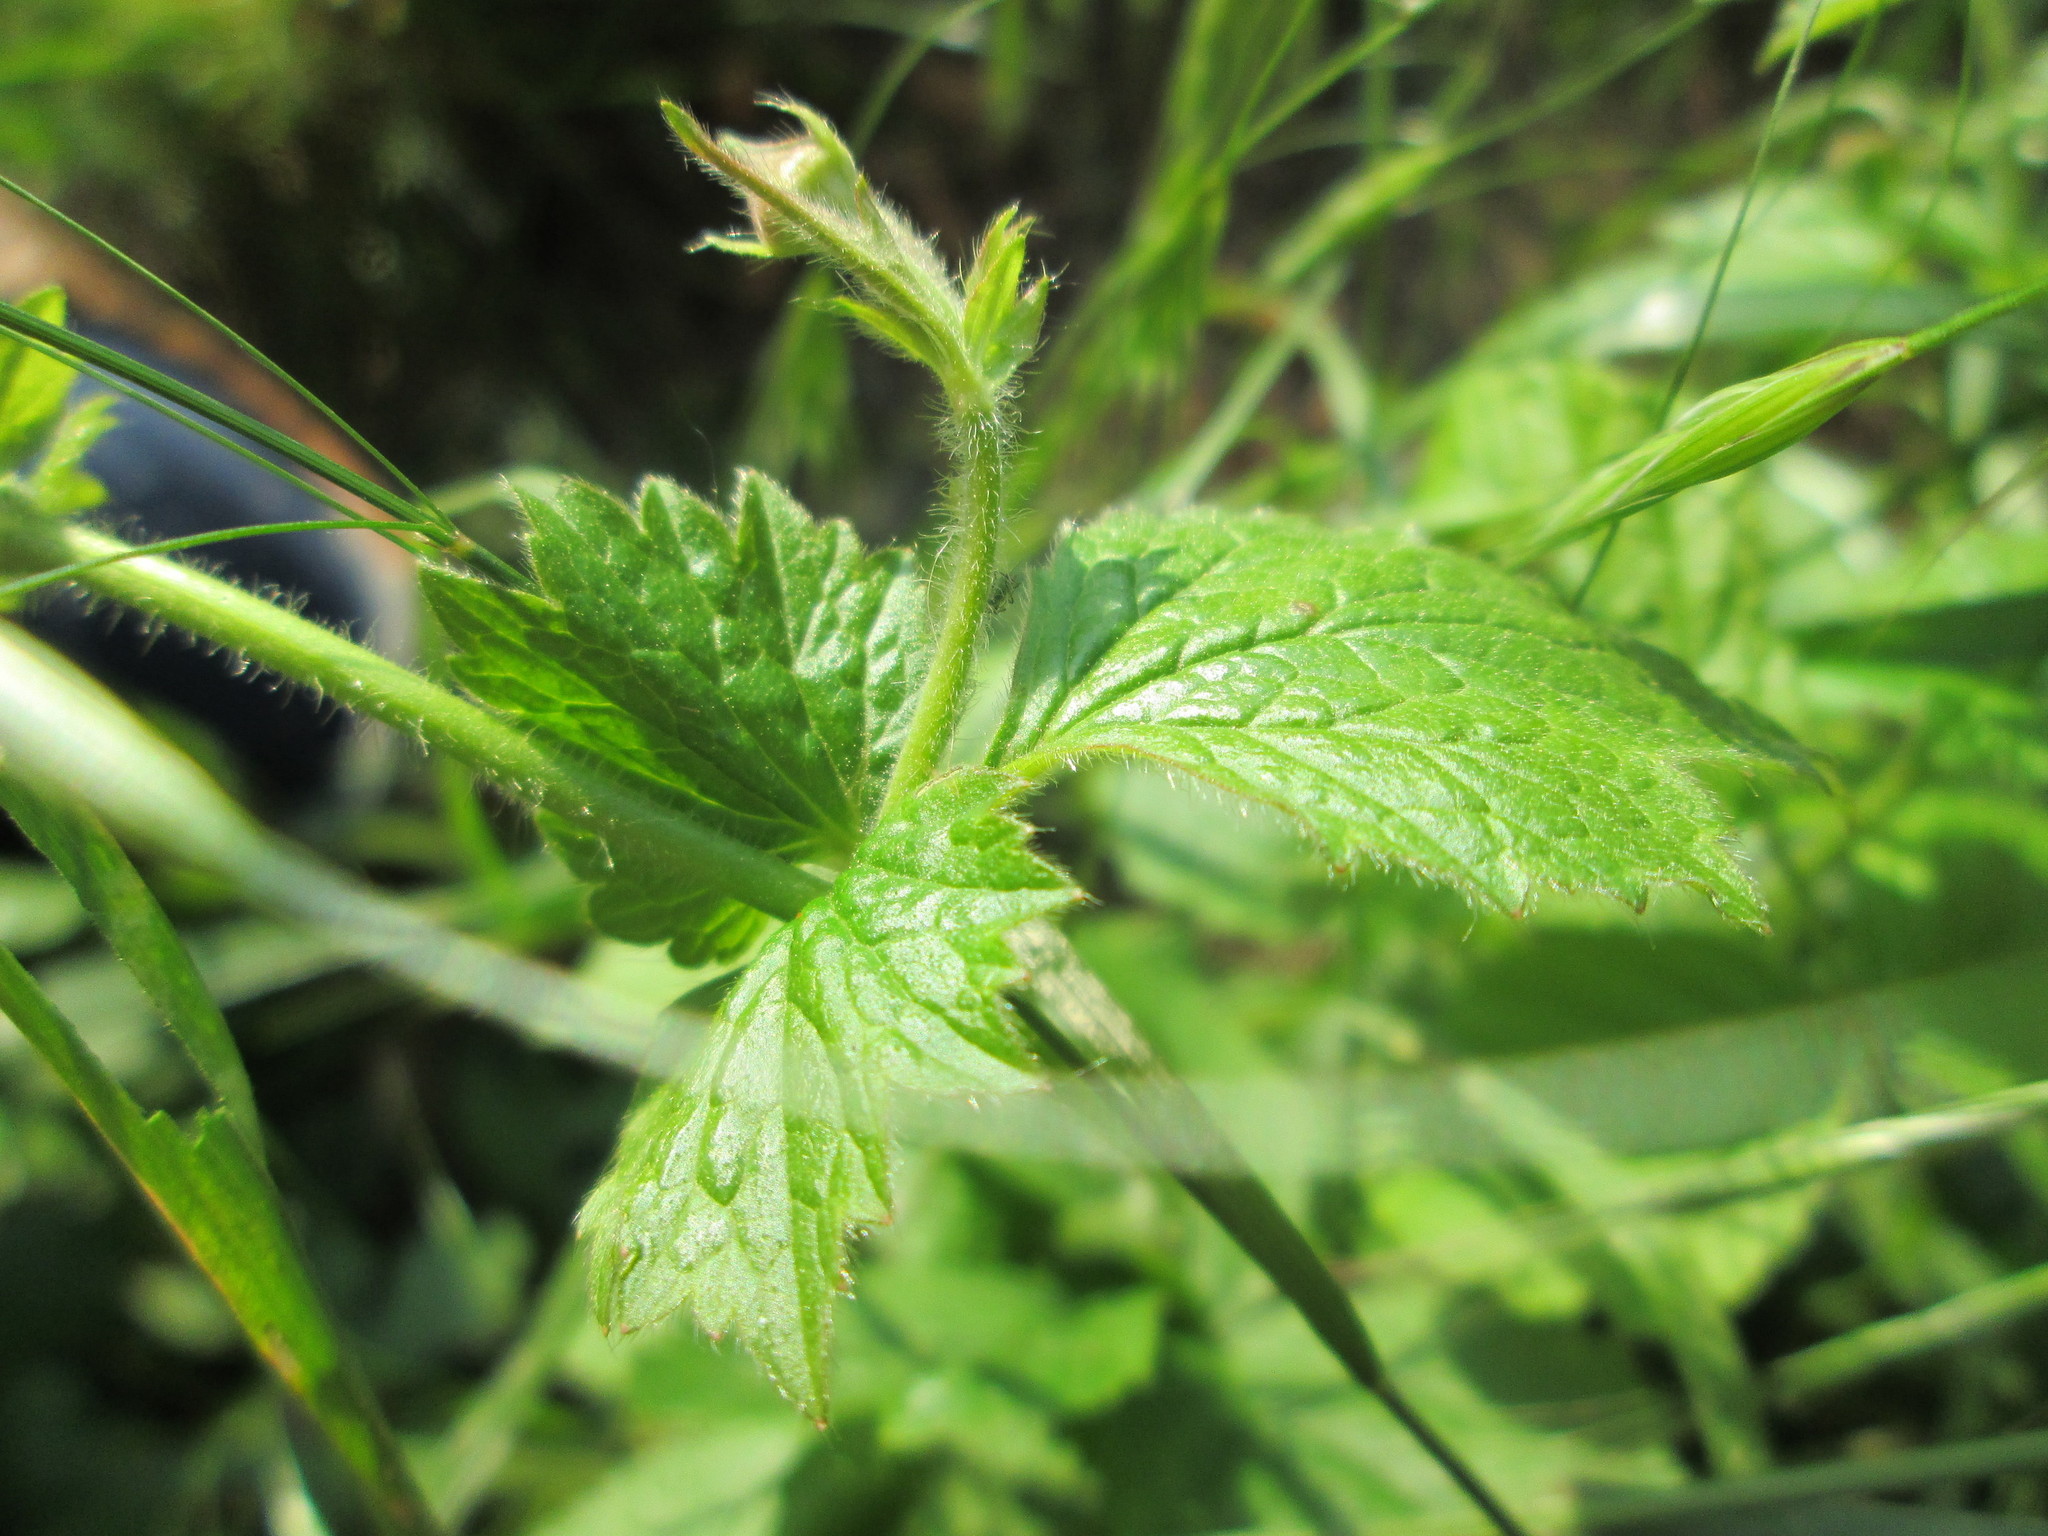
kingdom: Plantae
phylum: Tracheophyta
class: Magnoliopsida
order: Rosales
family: Rosaceae
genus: Geum
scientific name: Geum urbanum
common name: Wood avens
